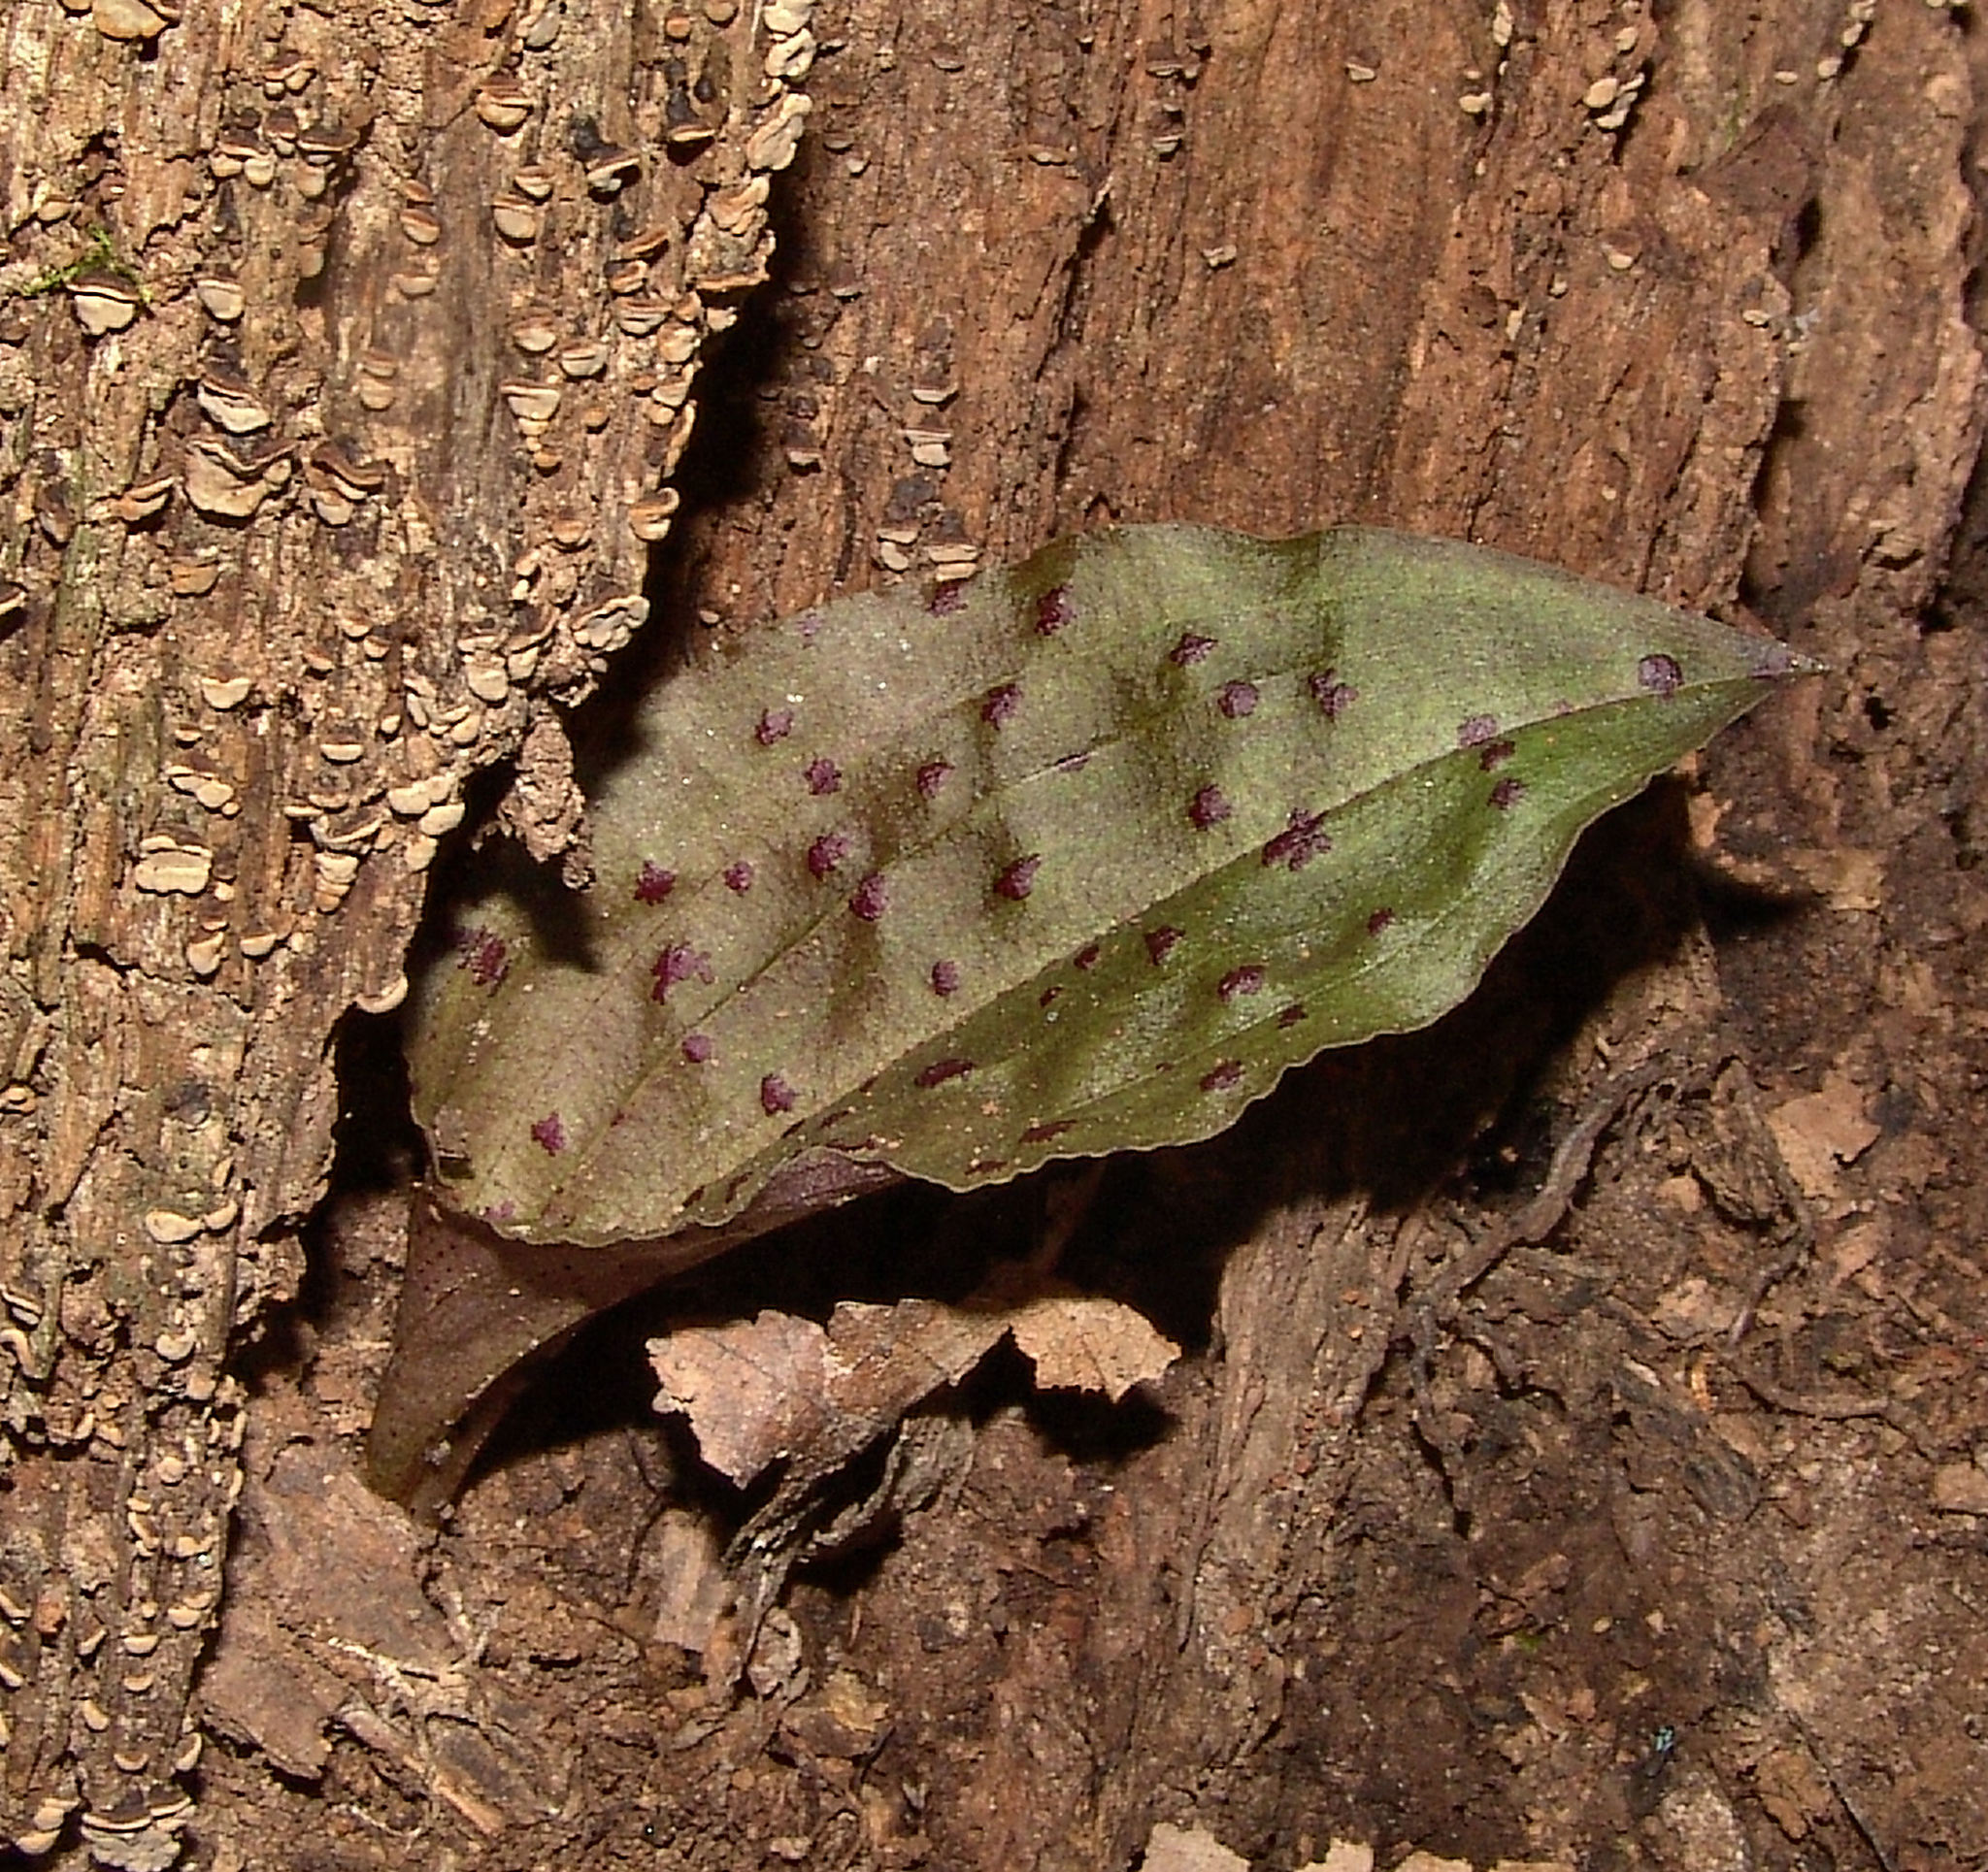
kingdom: Plantae
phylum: Tracheophyta
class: Liliopsida
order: Asparagales
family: Orchidaceae
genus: Tipularia
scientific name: Tipularia discolor
